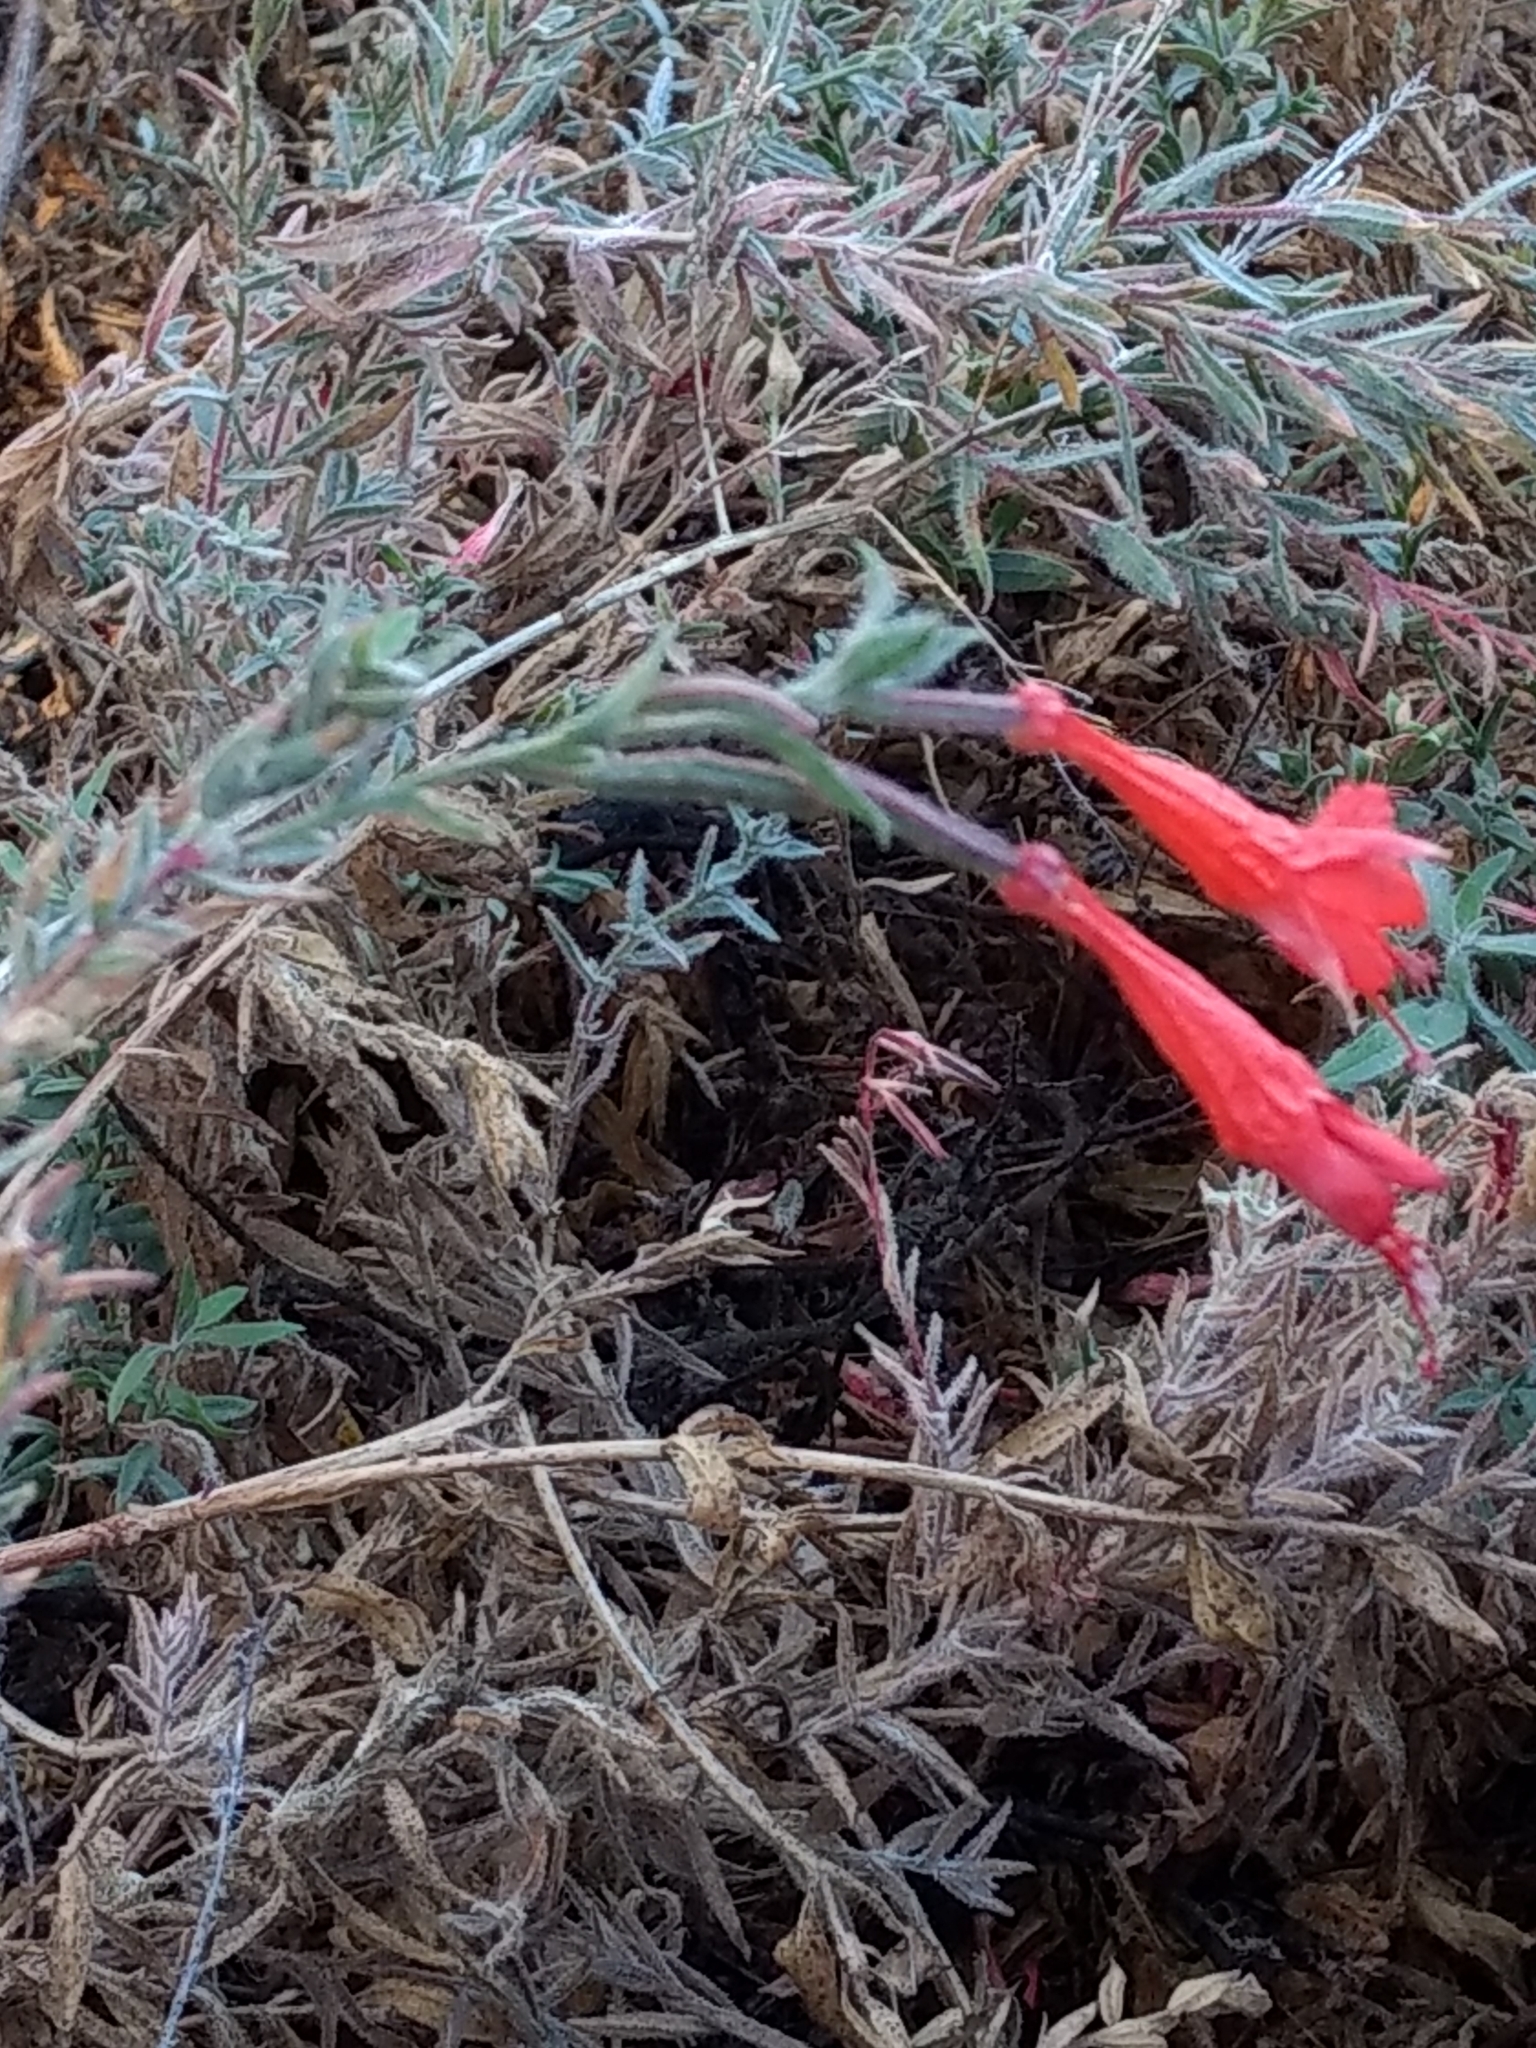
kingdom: Plantae
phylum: Tracheophyta
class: Magnoliopsida
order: Myrtales
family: Onagraceae
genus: Epilobium
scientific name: Epilobium canum
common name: California-fuchsia
